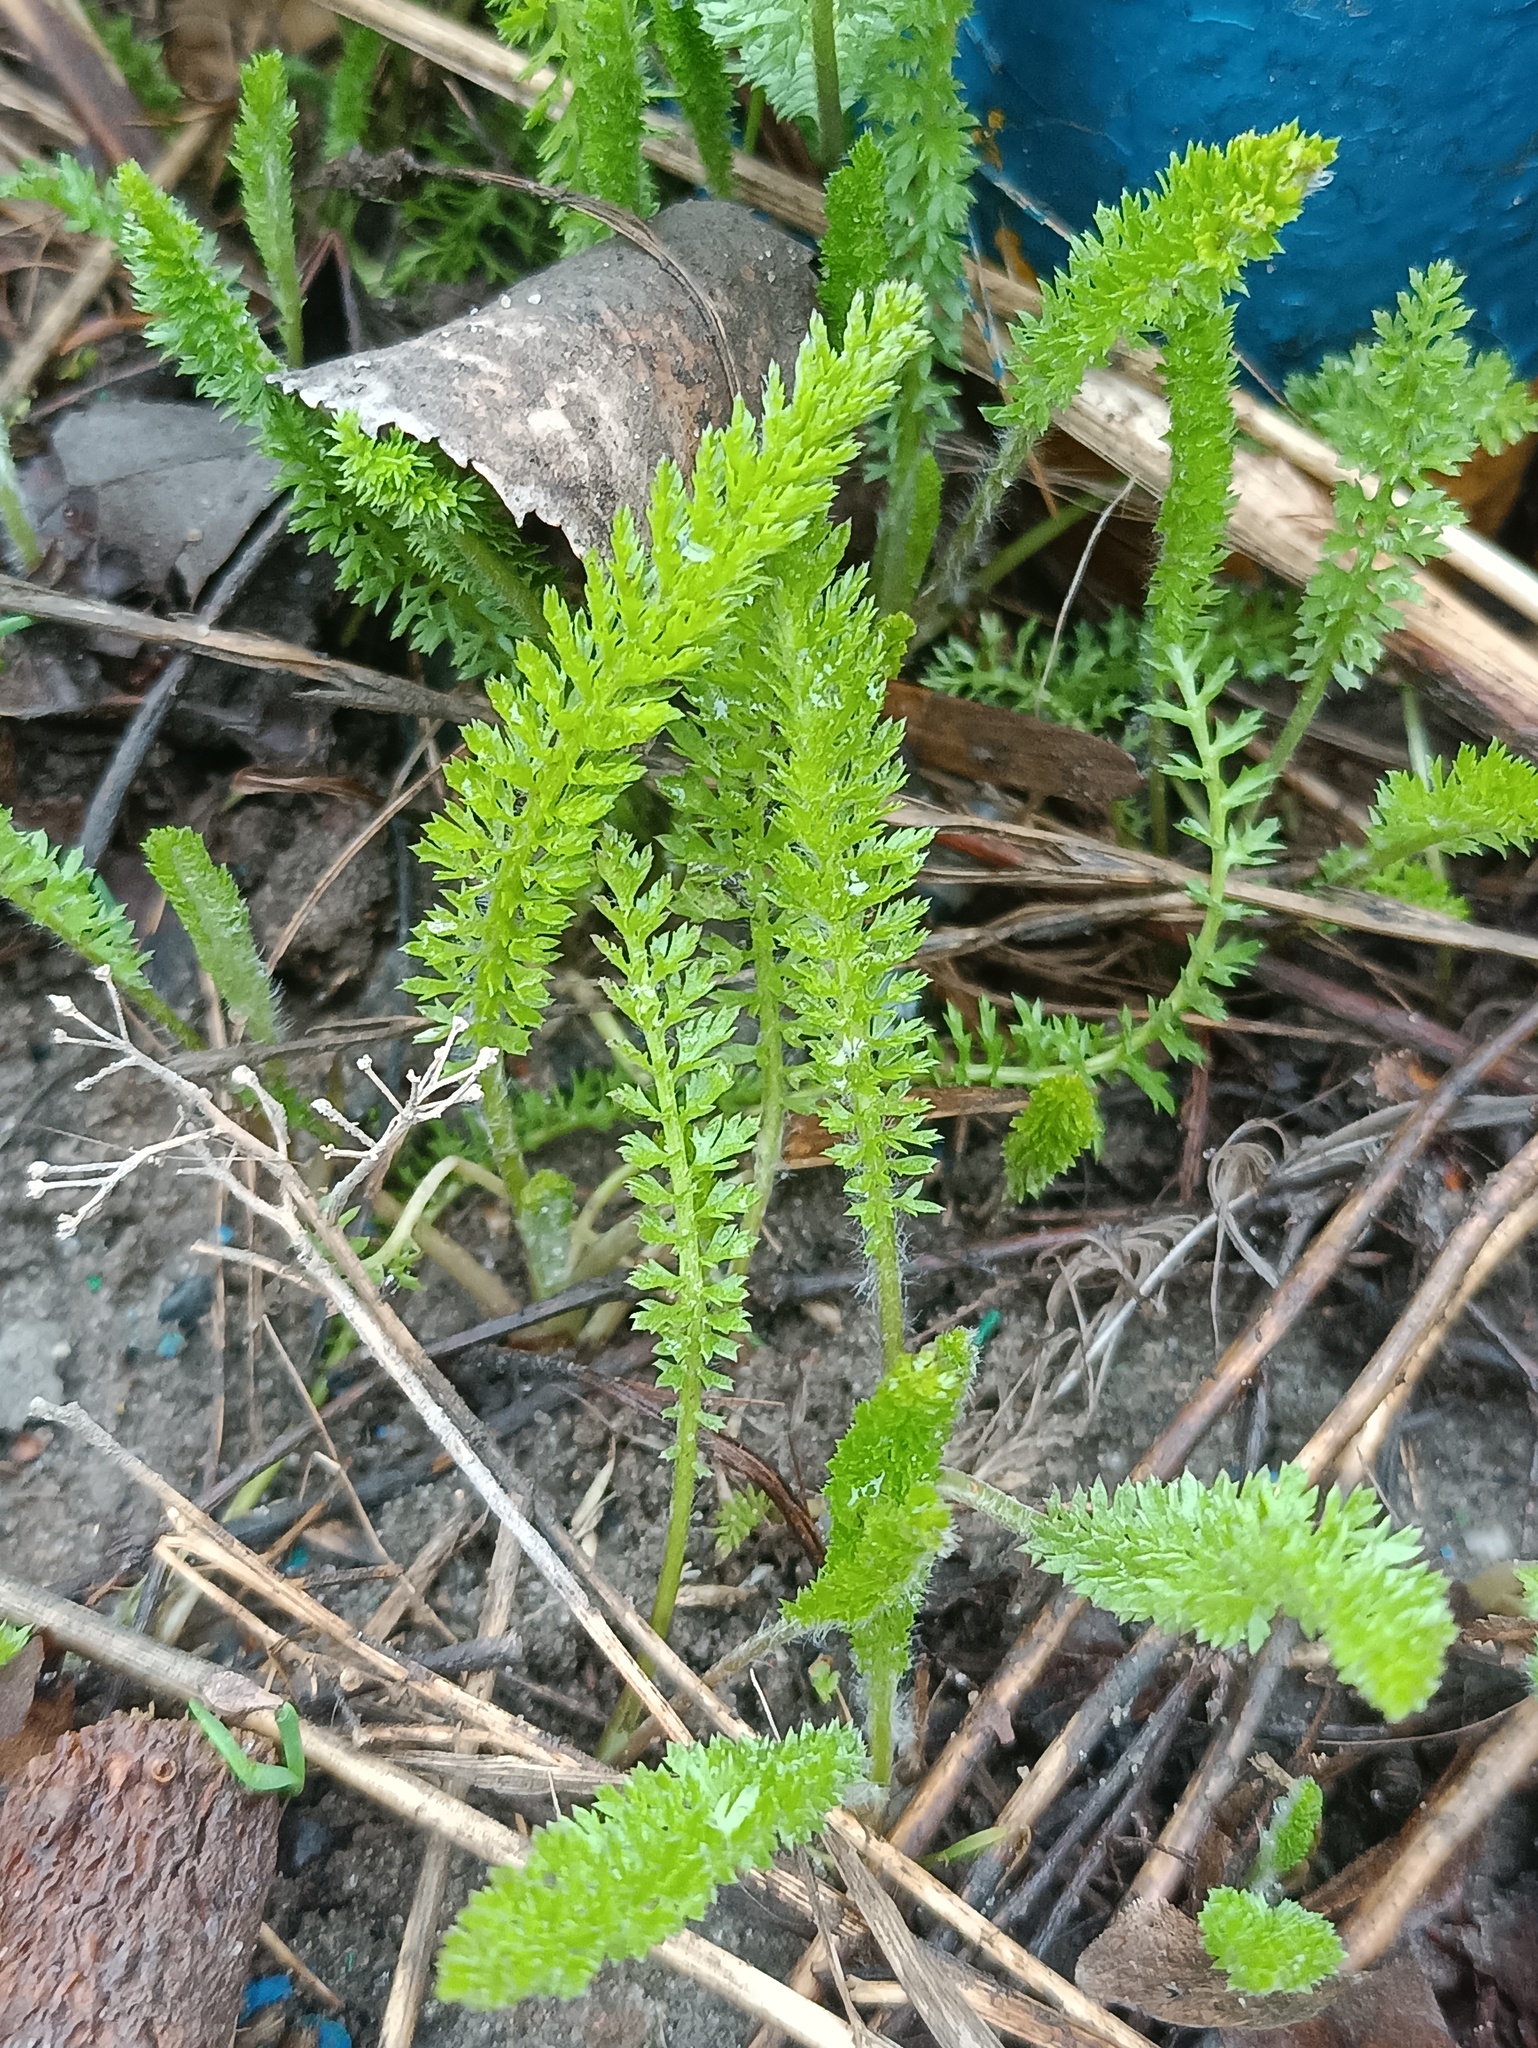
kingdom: Plantae
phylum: Tracheophyta
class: Magnoliopsida
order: Asterales
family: Asteraceae
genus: Achillea
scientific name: Achillea millefolium
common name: Yarrow
